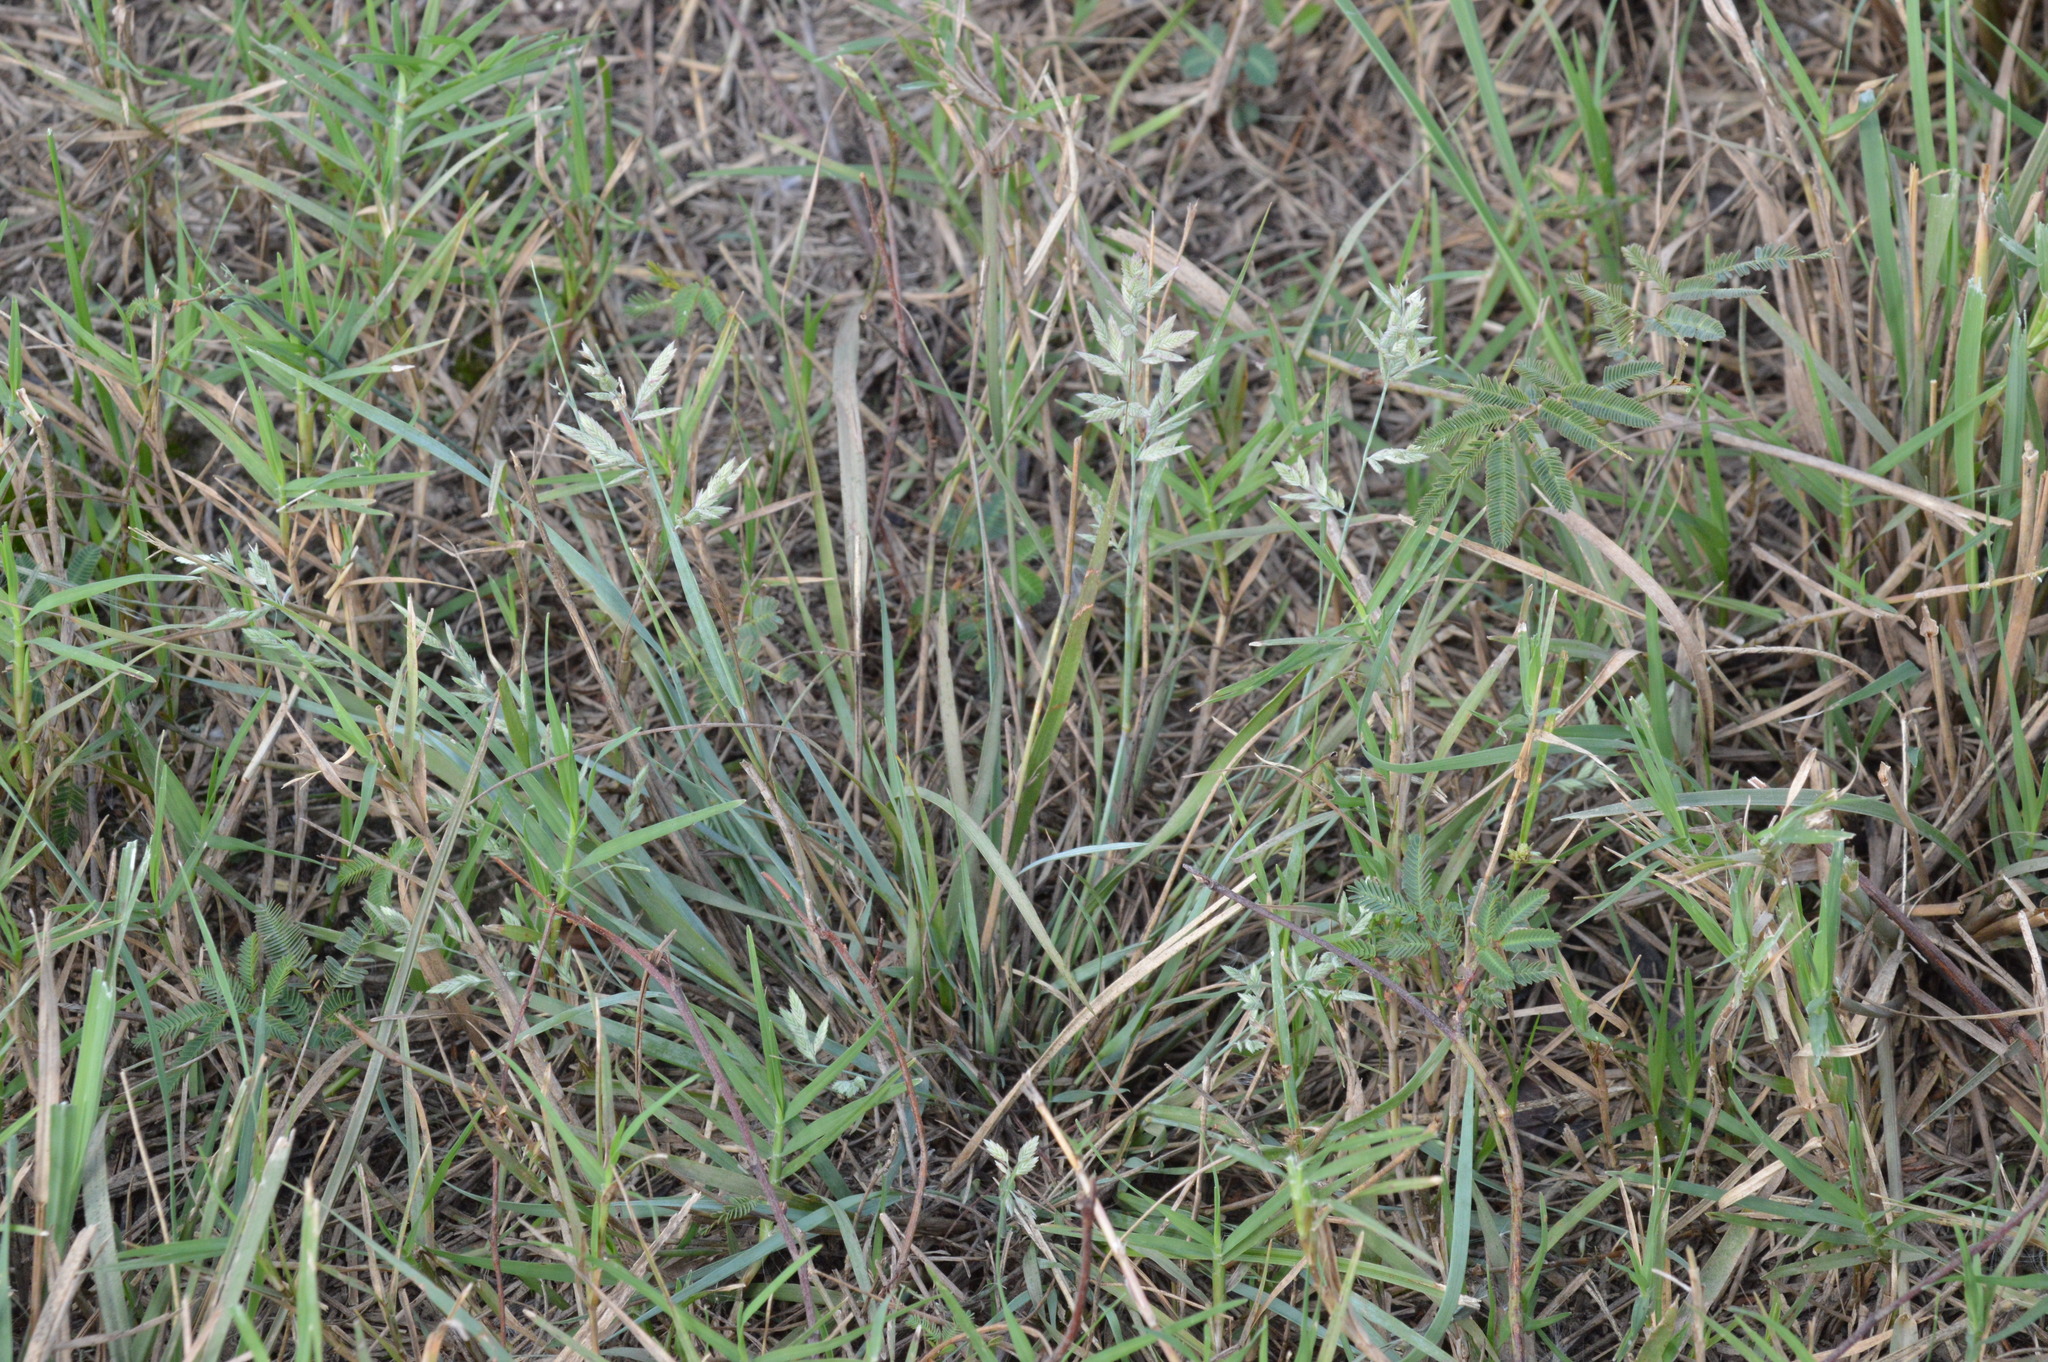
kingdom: Plantae
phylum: Tracheophyta
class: Liliopsida
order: Poales
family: Poaceae
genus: Eragrostis
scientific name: Eragrostis secundiflora
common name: Red love grass
